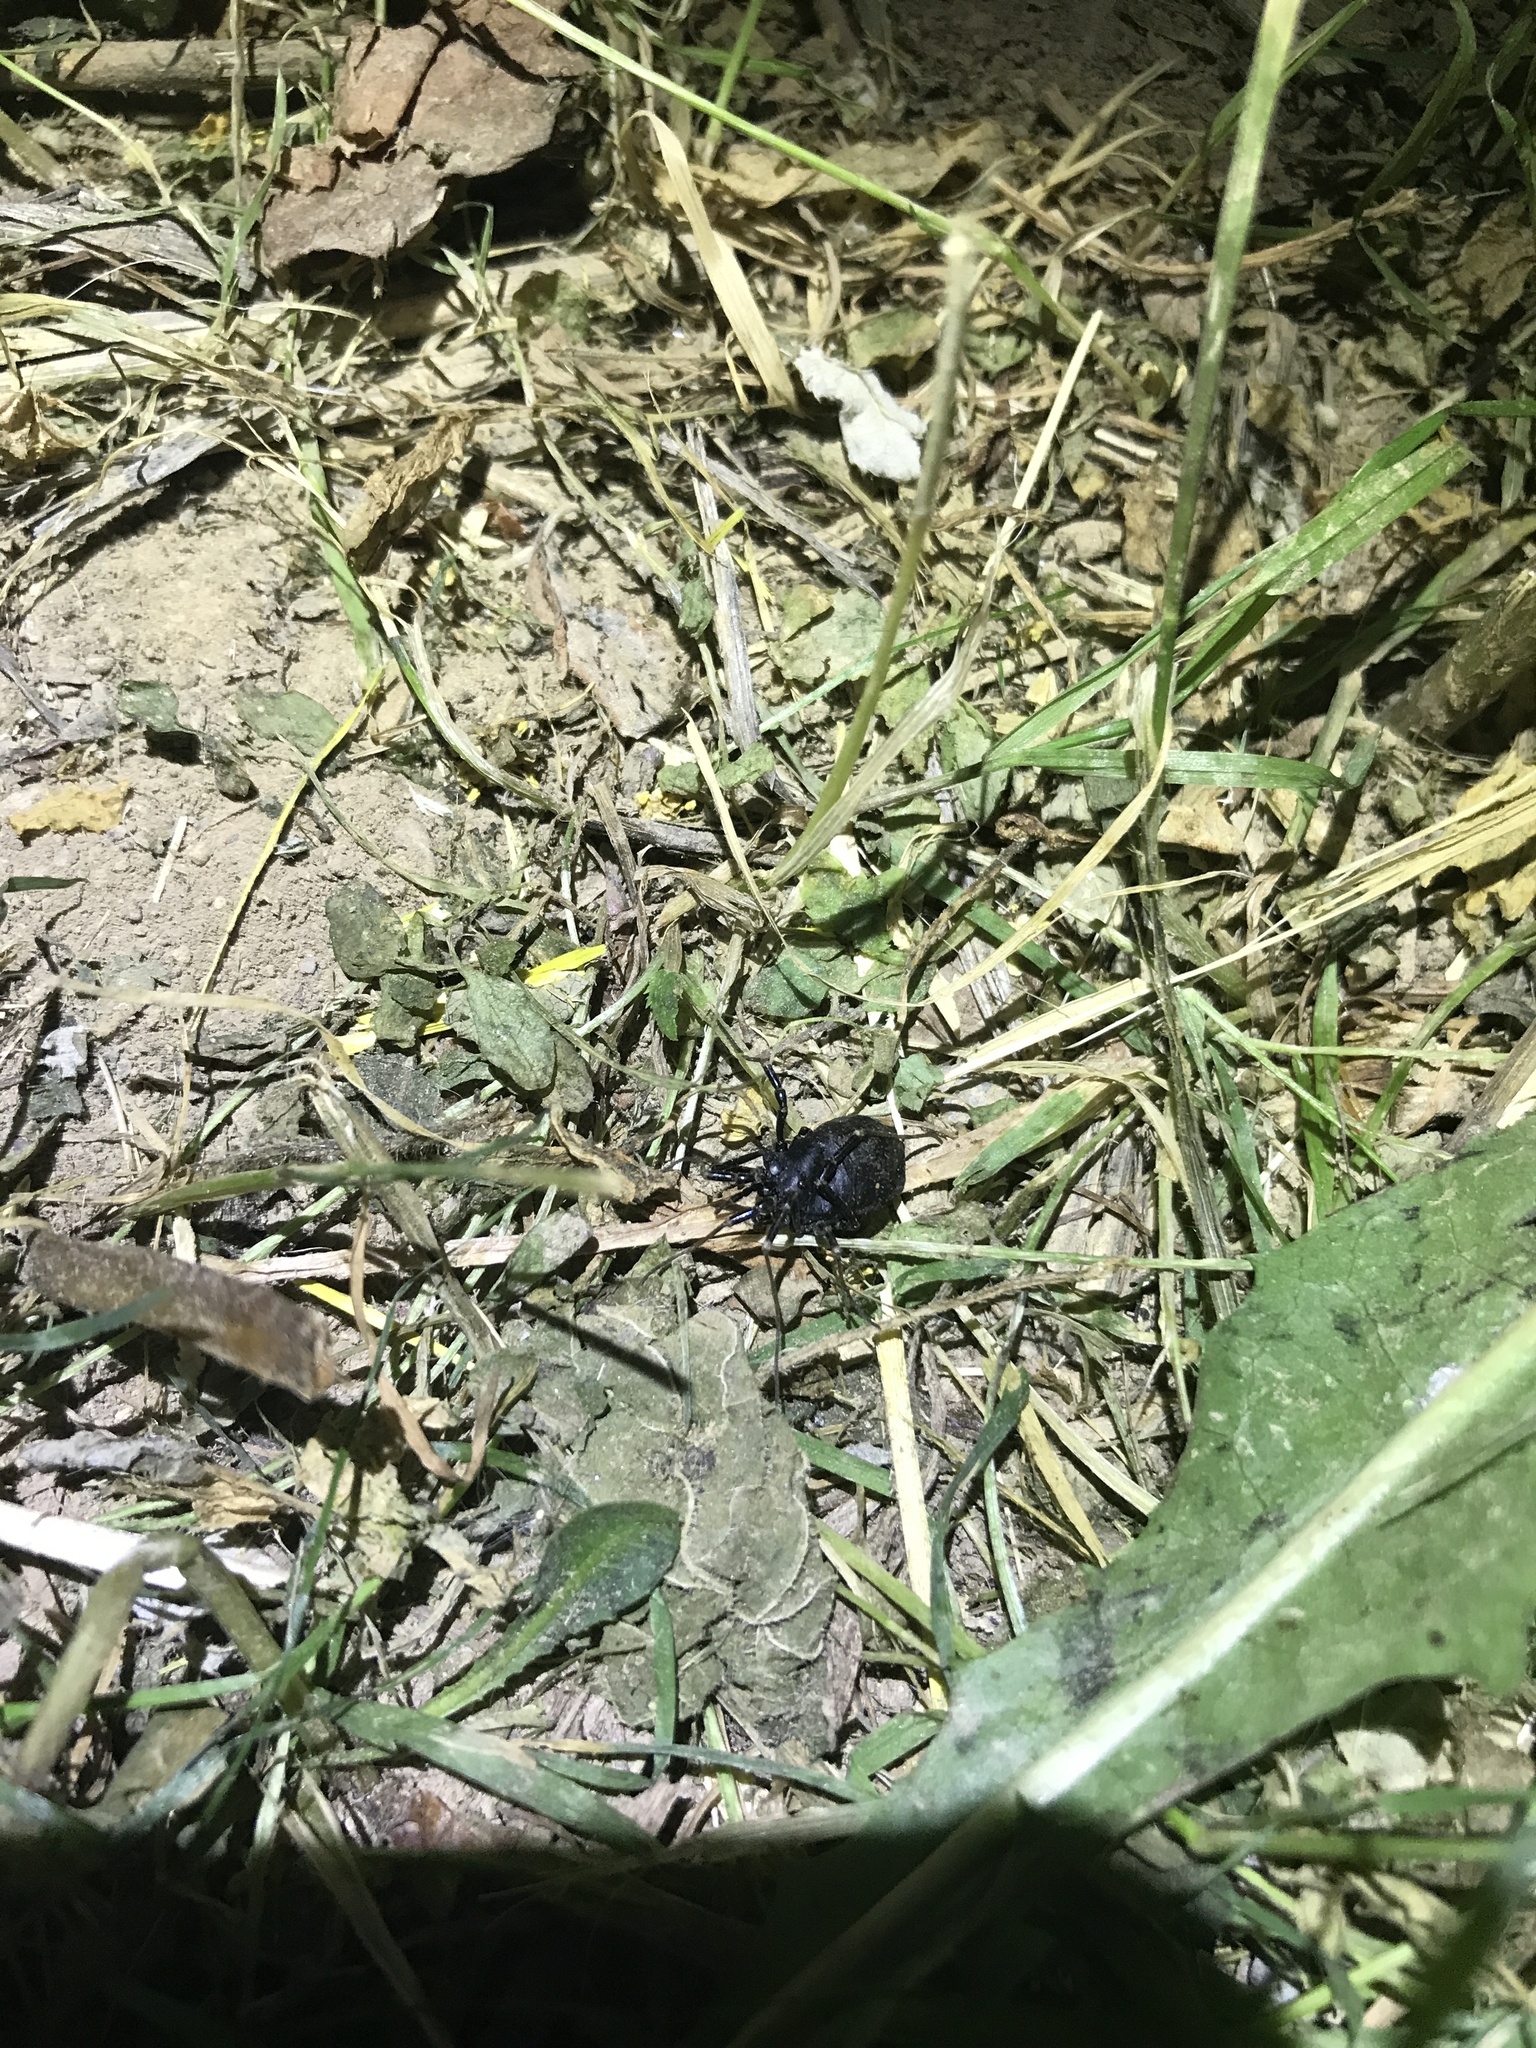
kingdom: Animalia
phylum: Arthropoda
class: Arachnida
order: Opiliones
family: Phalangiidae
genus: Egaenus
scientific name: Egaenus convexus
